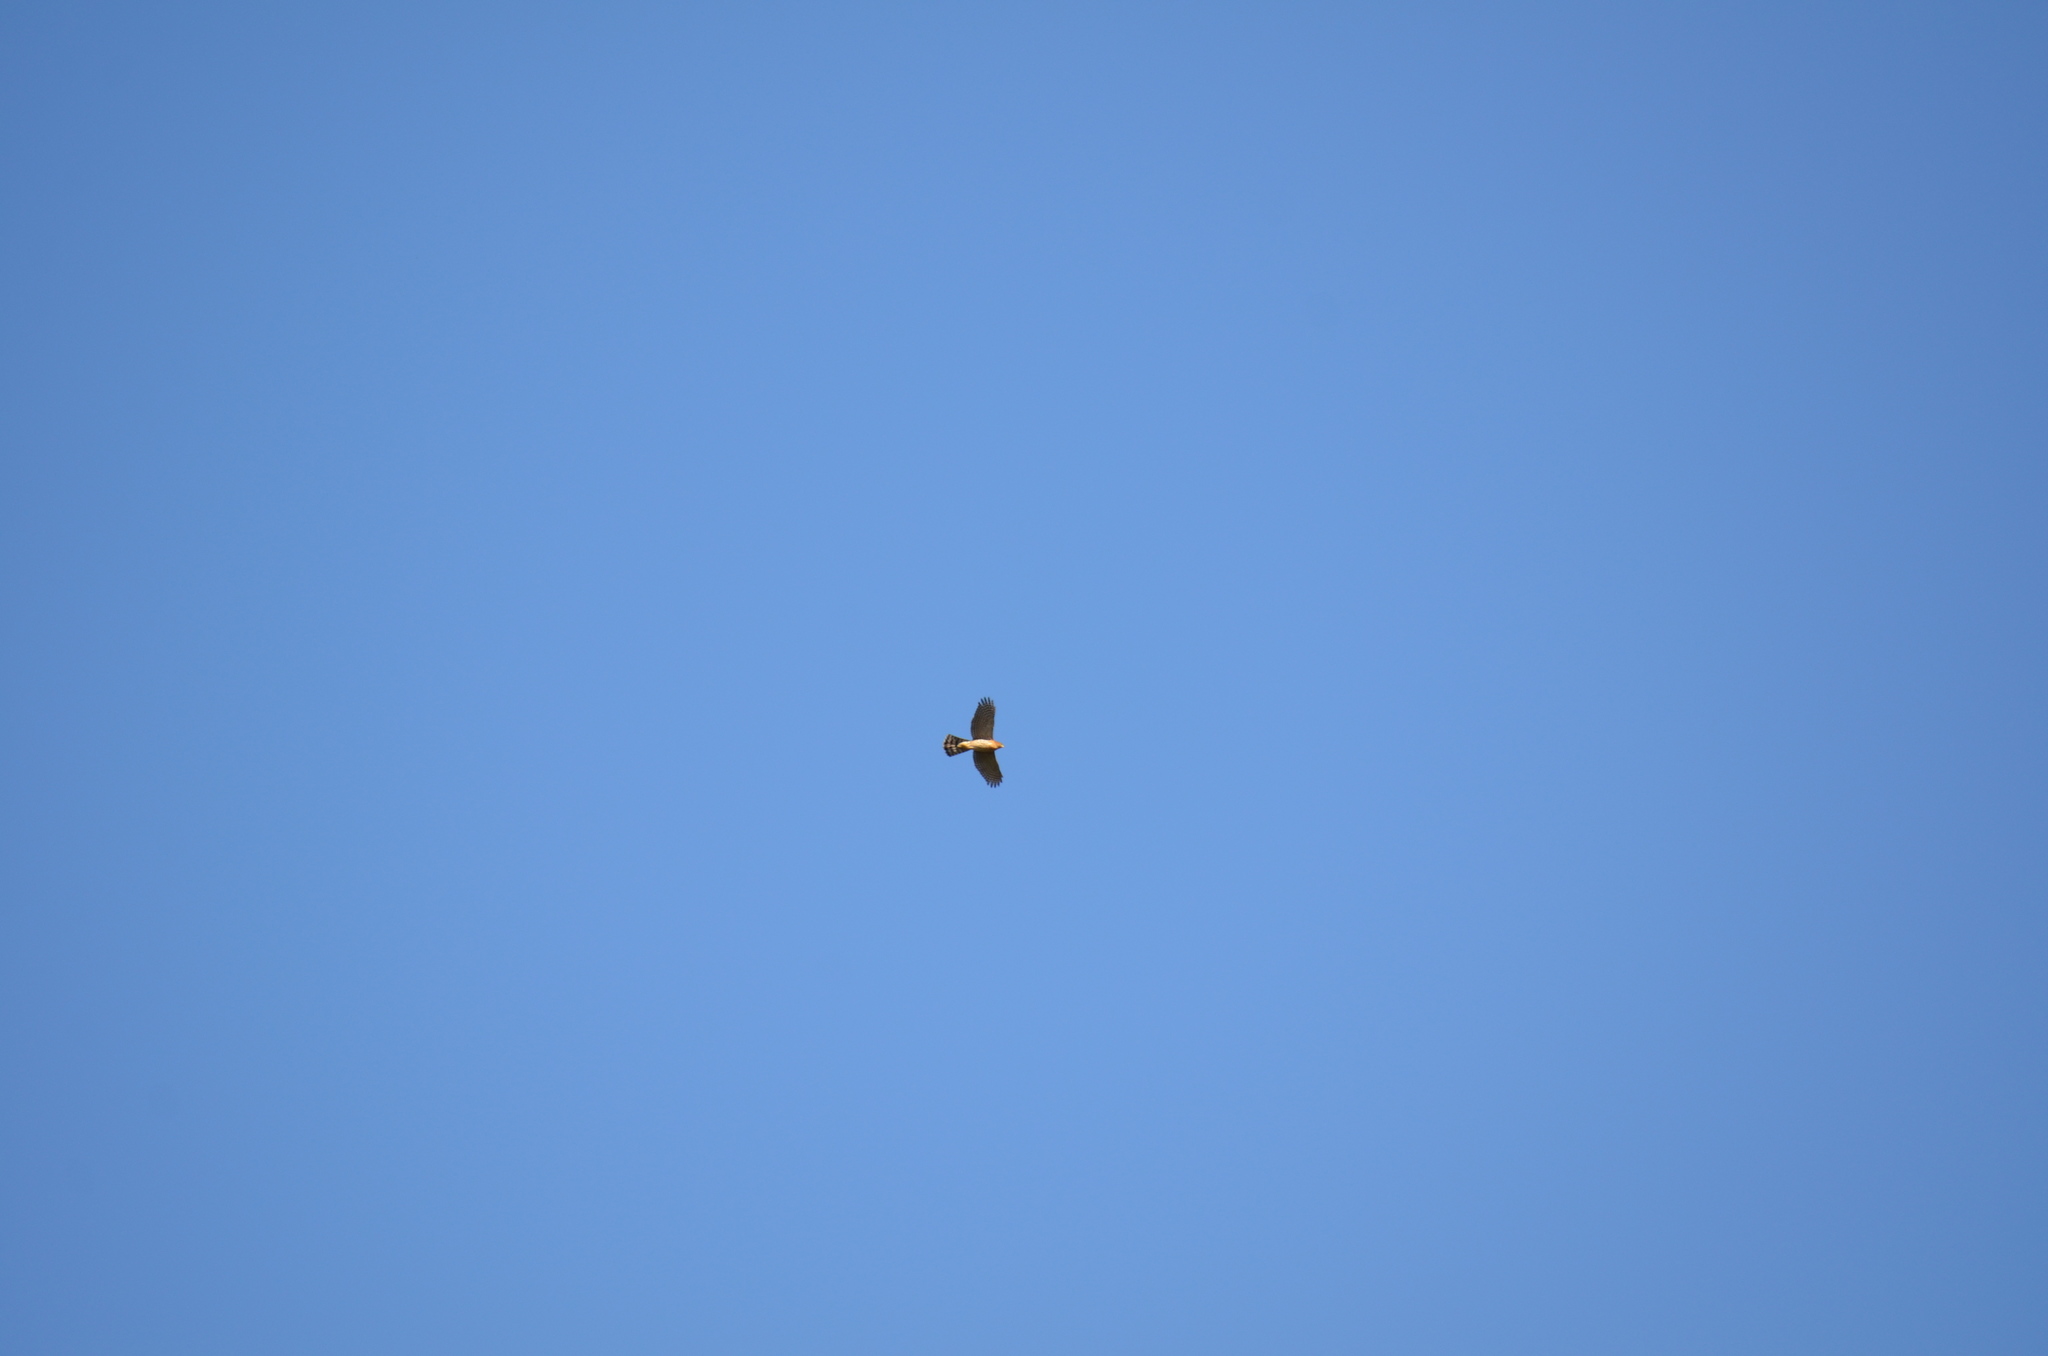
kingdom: Animalia
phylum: Chordata
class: Aves
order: Accipitriformes
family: Accipitridae
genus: Accipiter
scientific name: Accipiter cooperii
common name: Cooper's hawk
